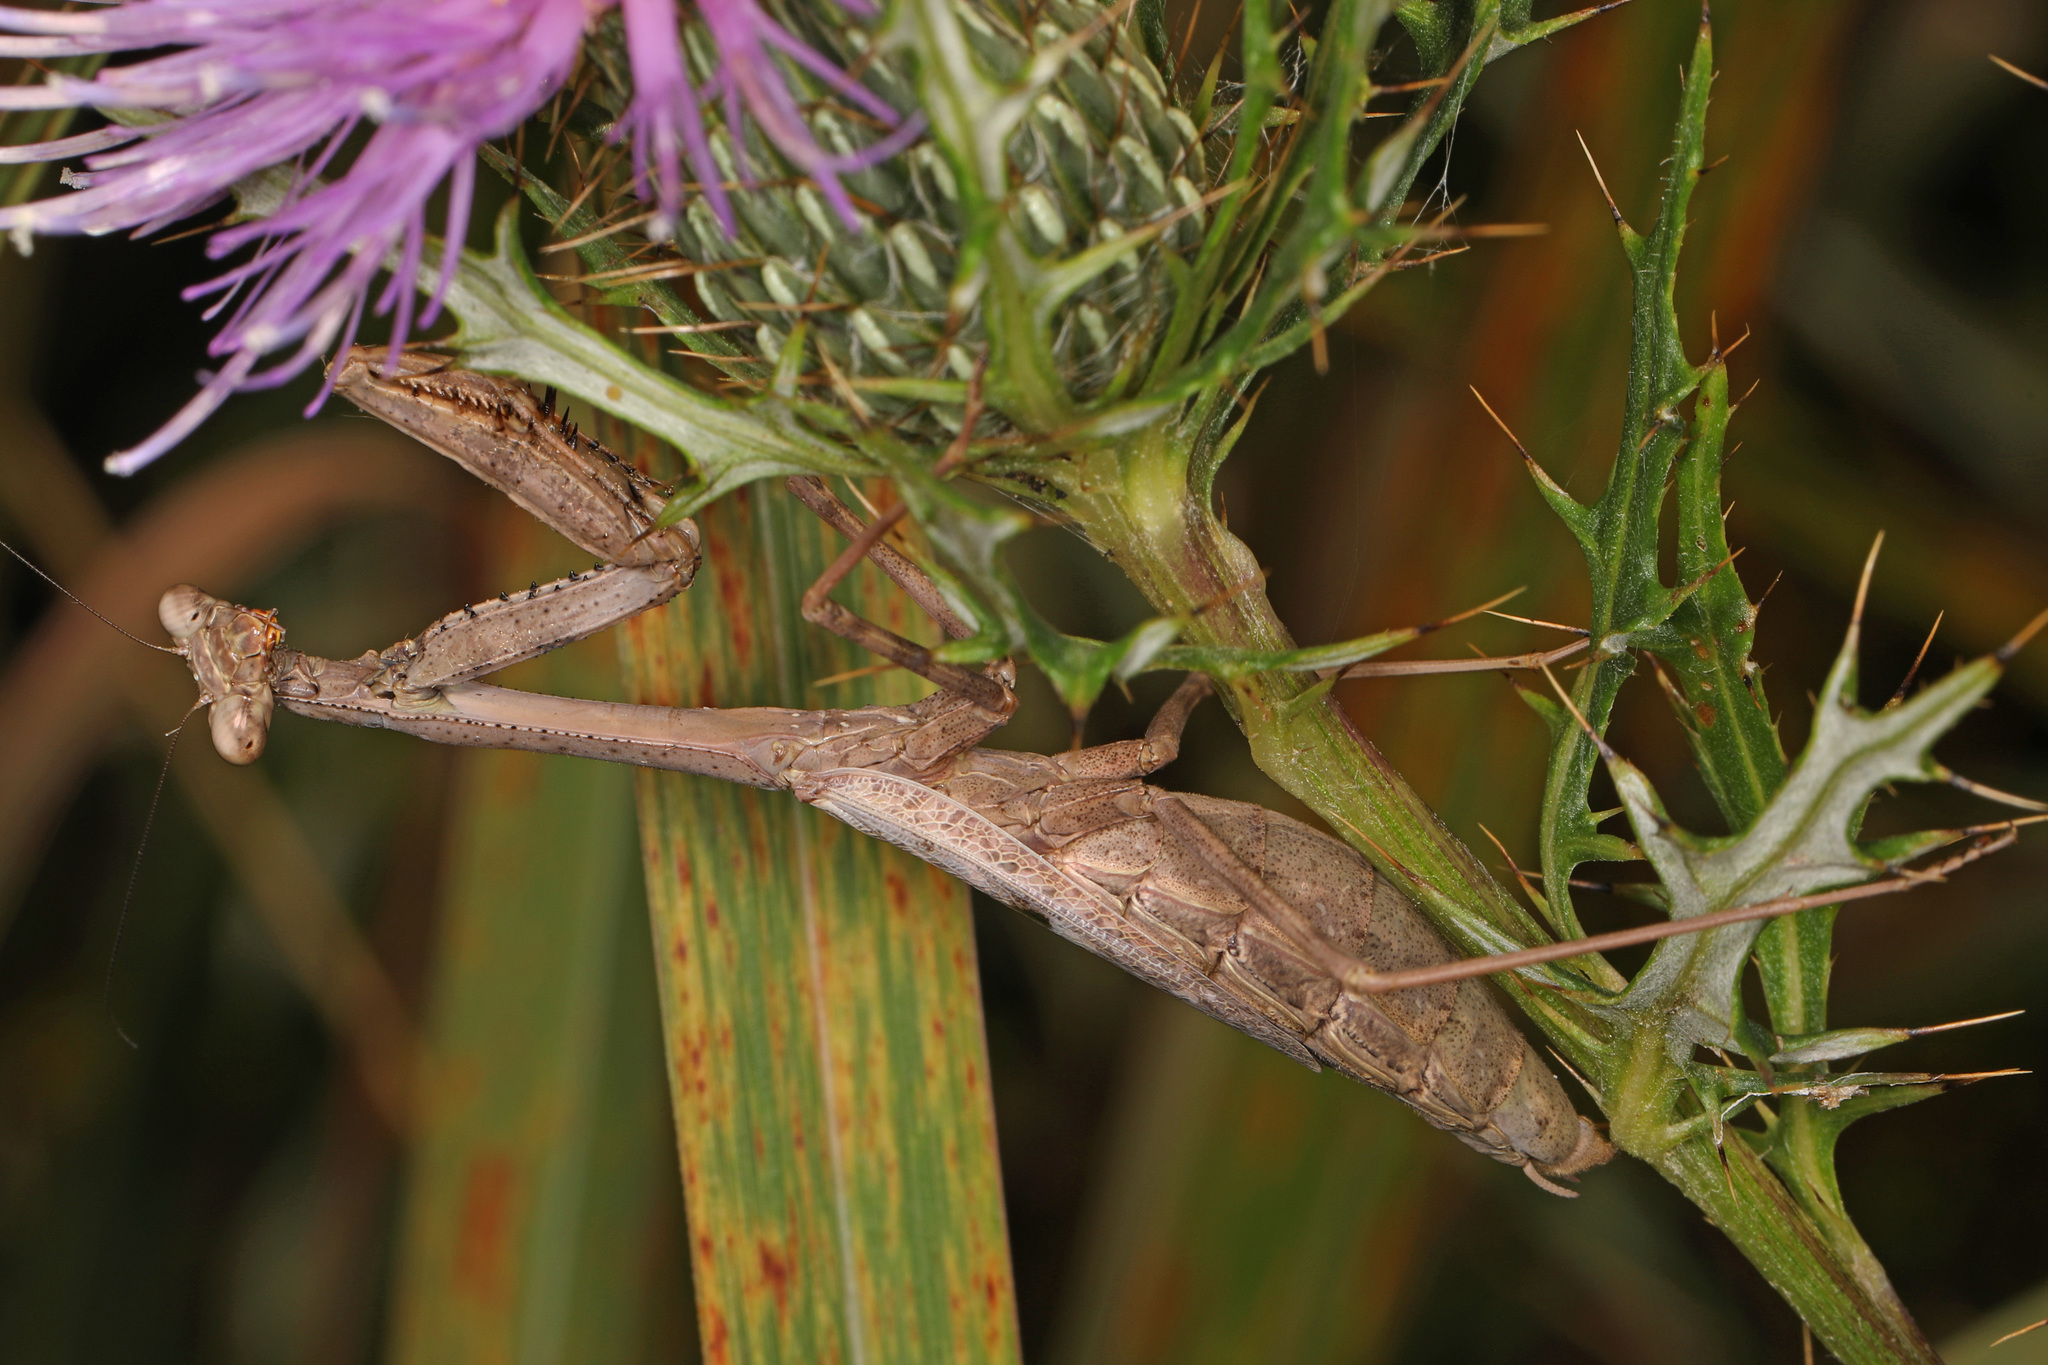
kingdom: Animalia
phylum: Arthropoda
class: Insecta
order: Mantodea
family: Mantidae
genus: Stagmomantis
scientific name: Stagmomantis carolina
